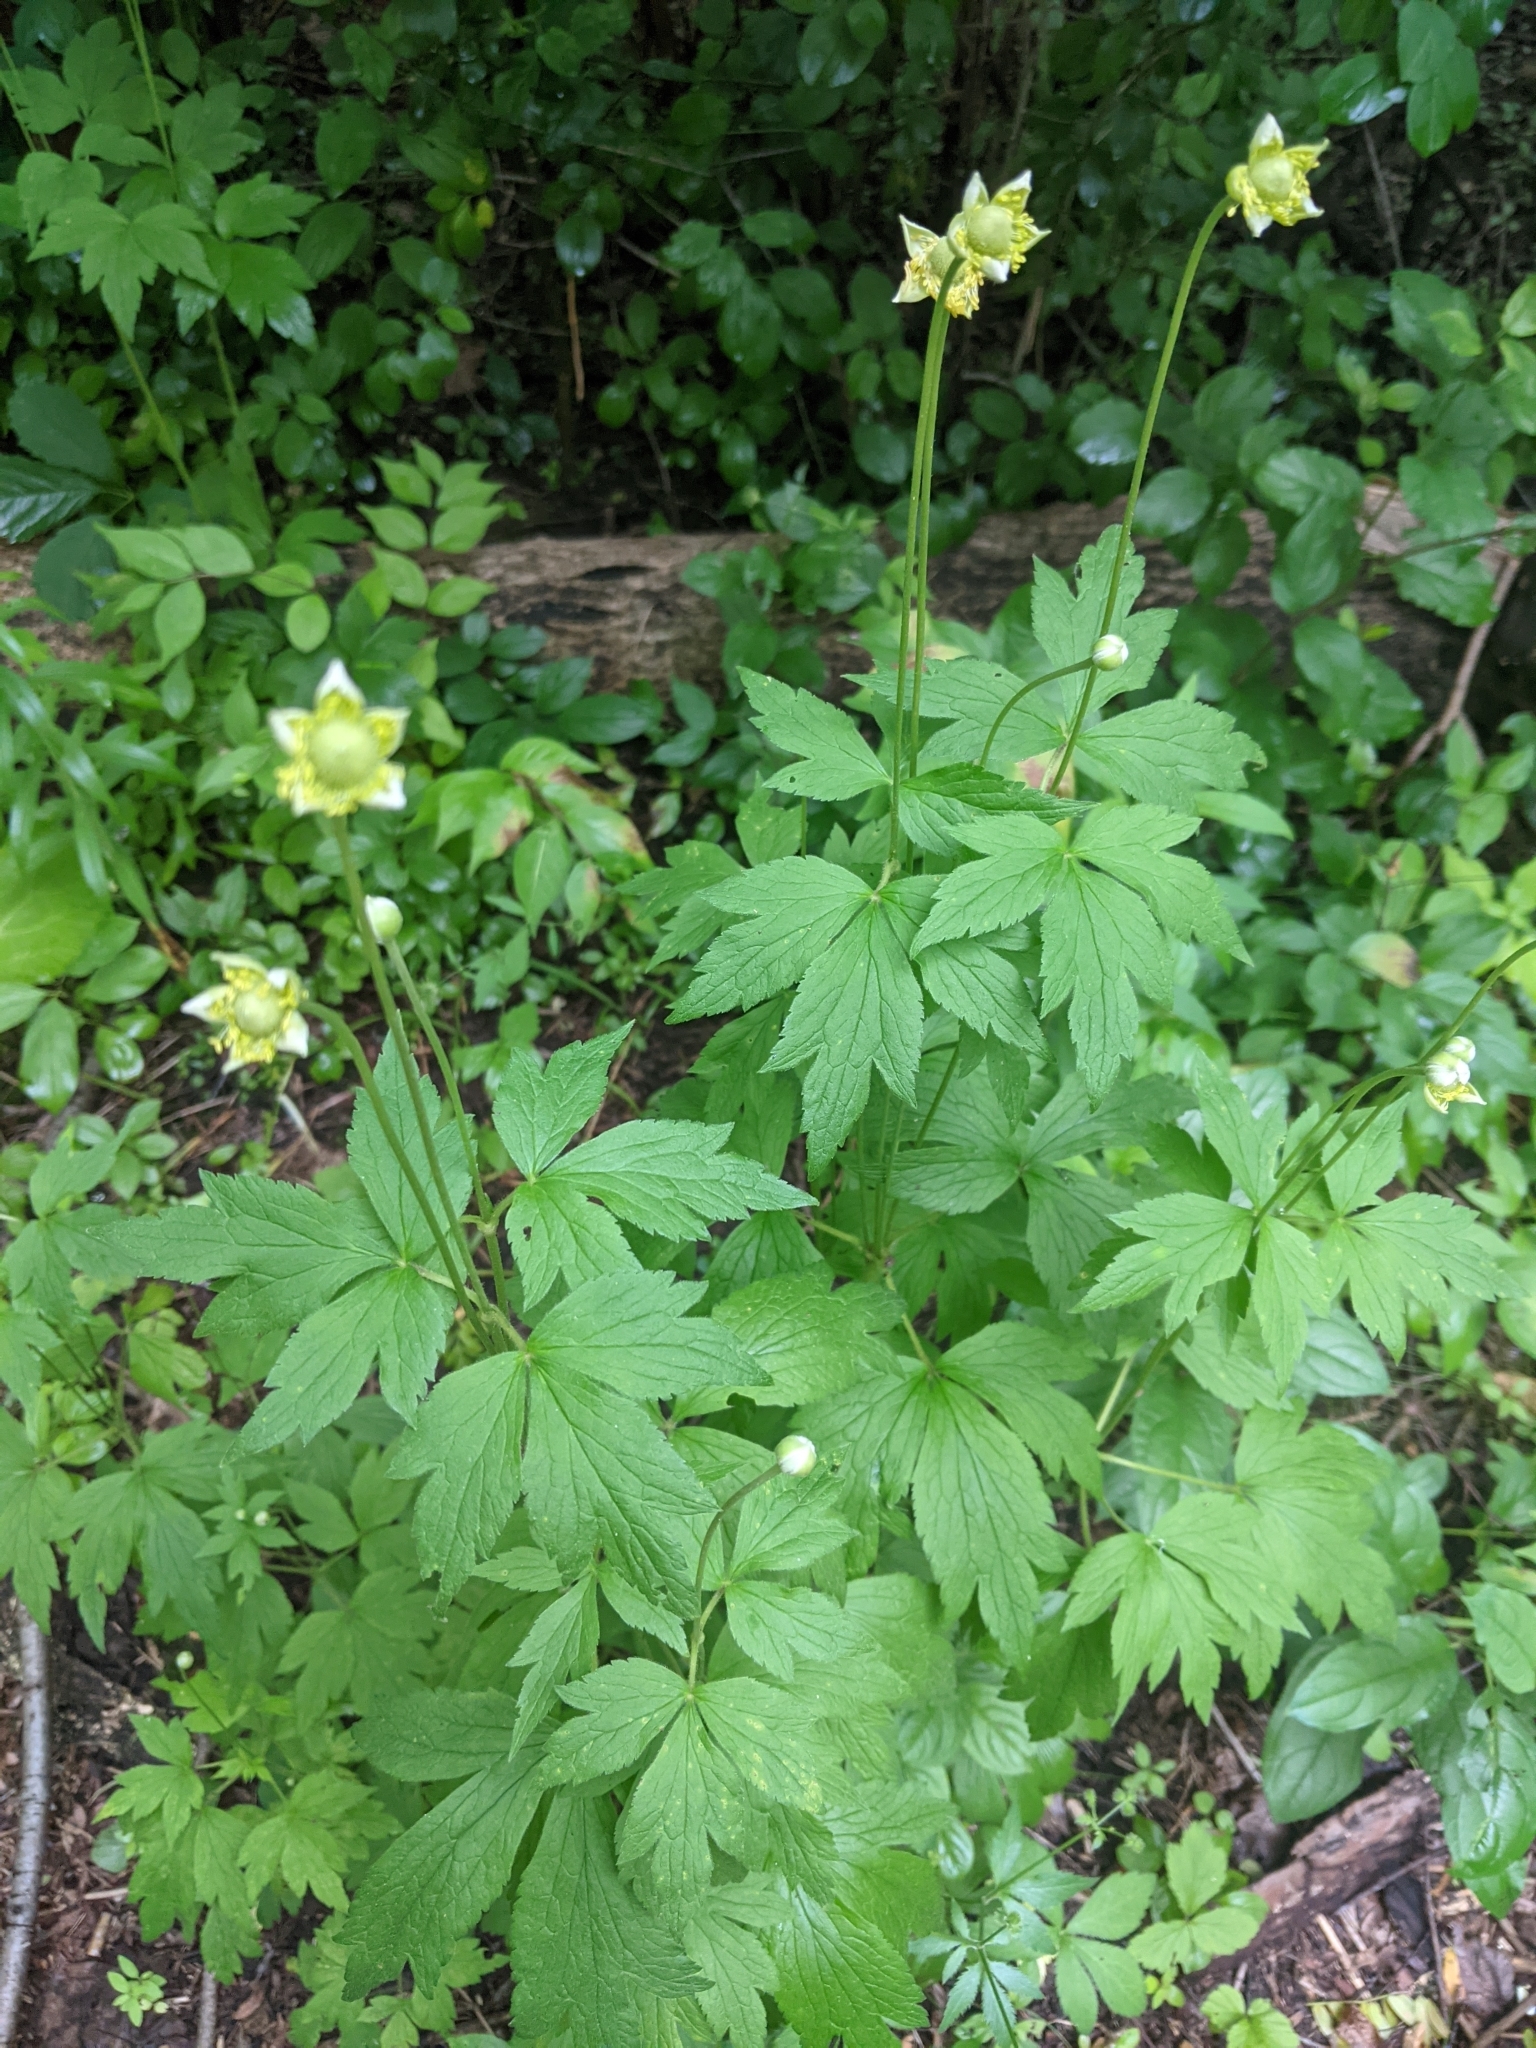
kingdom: Plantae
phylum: Tracheophyta
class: Magnoliopsida
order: Ranunculales
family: Ranunculaceae
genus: Anemone
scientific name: Anemone virginiana
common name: Tall anemone
